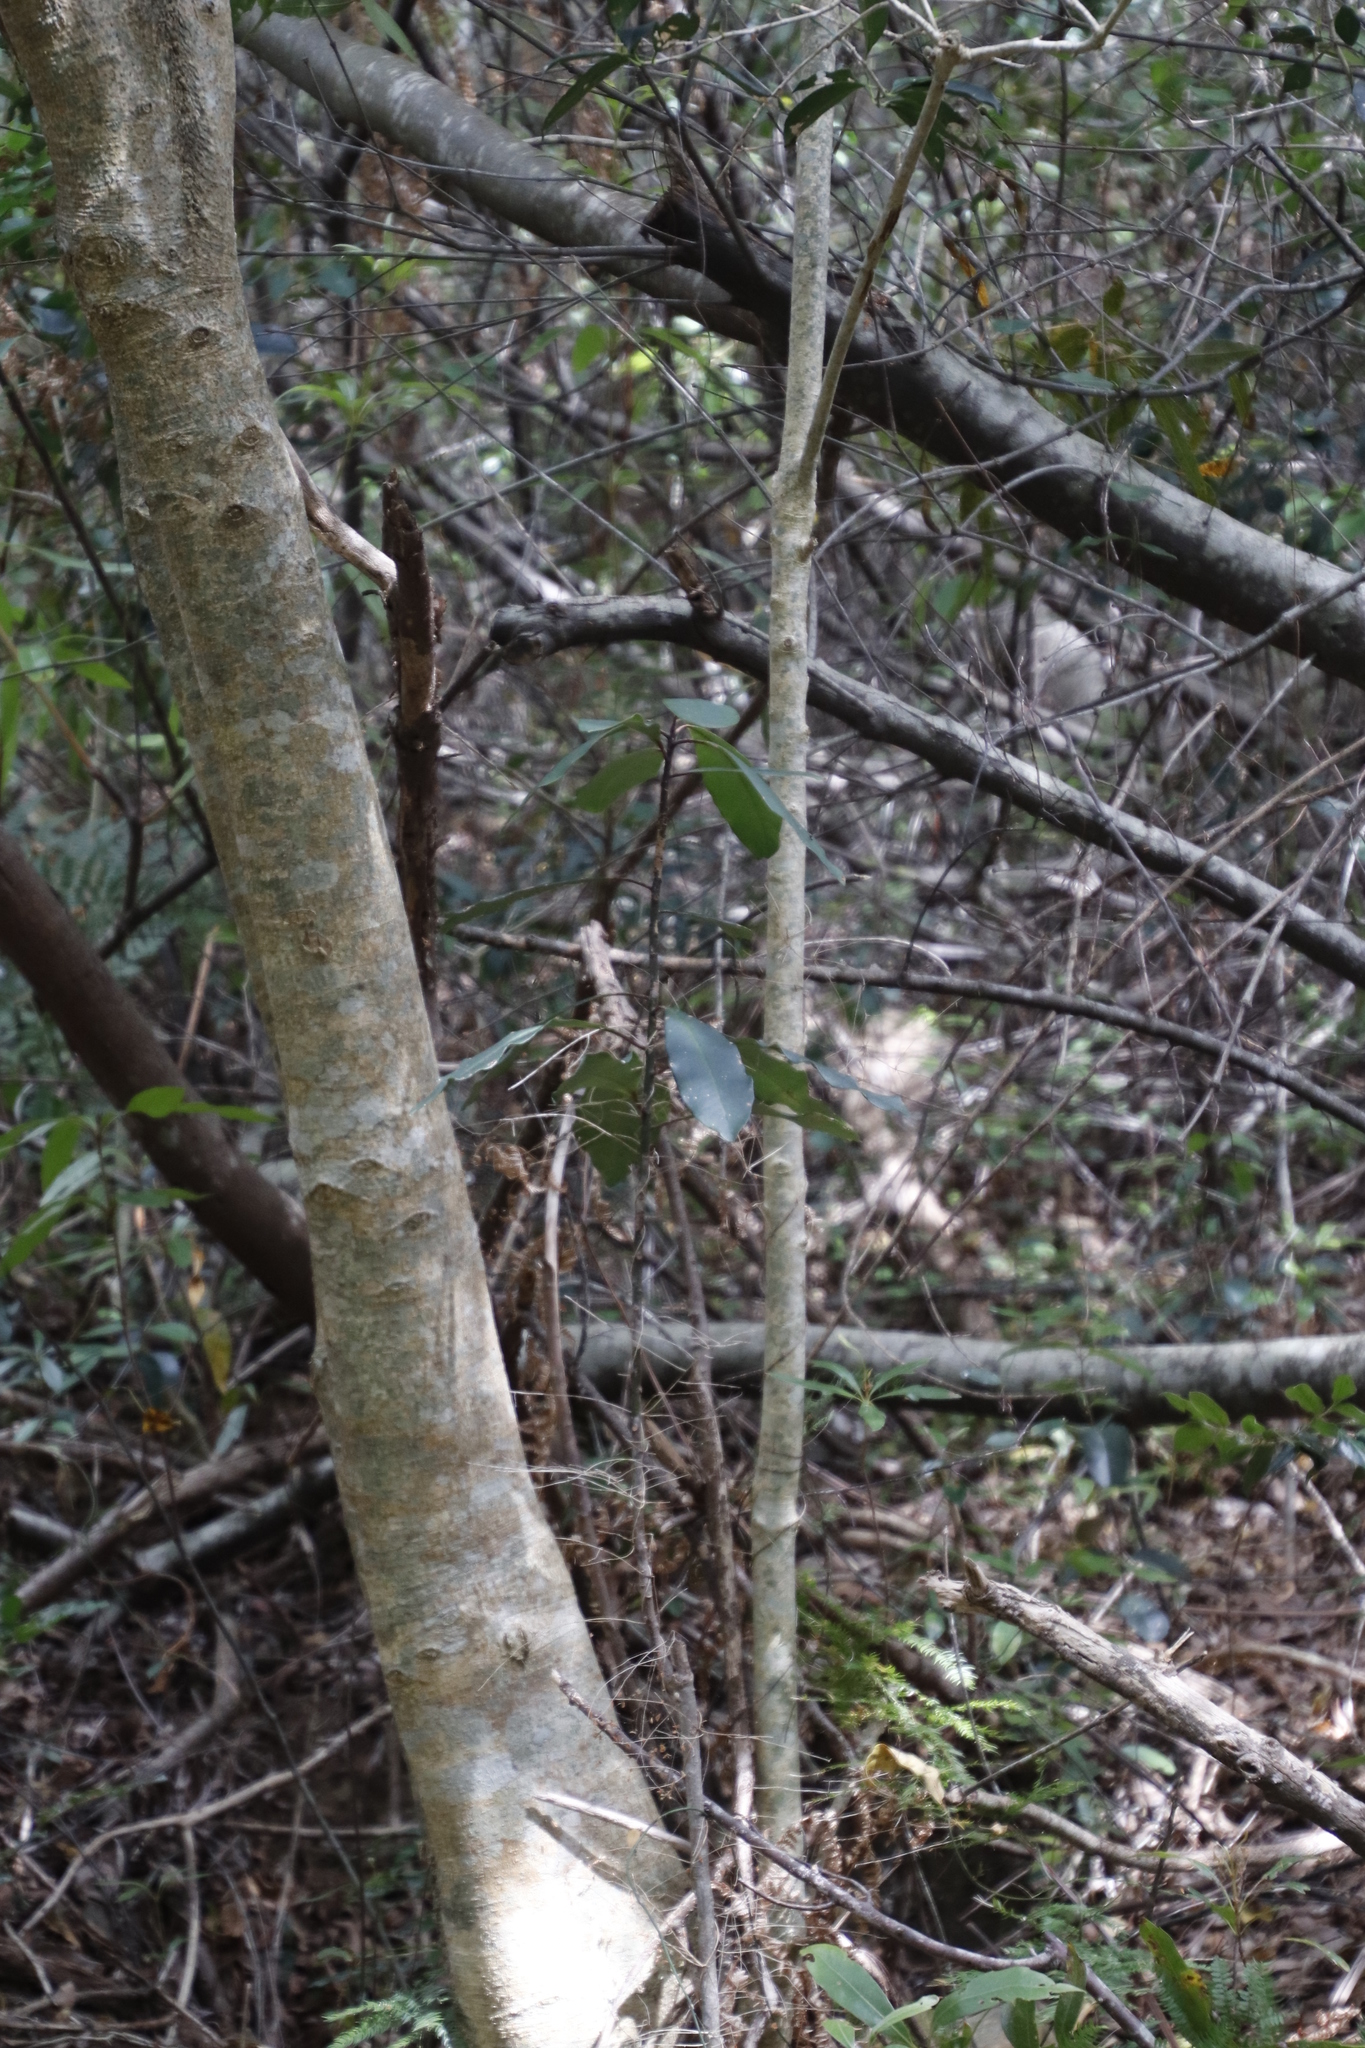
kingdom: Plantae
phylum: Tracheophyta
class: Magnoliopsida
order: Ericales
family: Primulaceae
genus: Myrsine
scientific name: Myrsine melanophloeos
